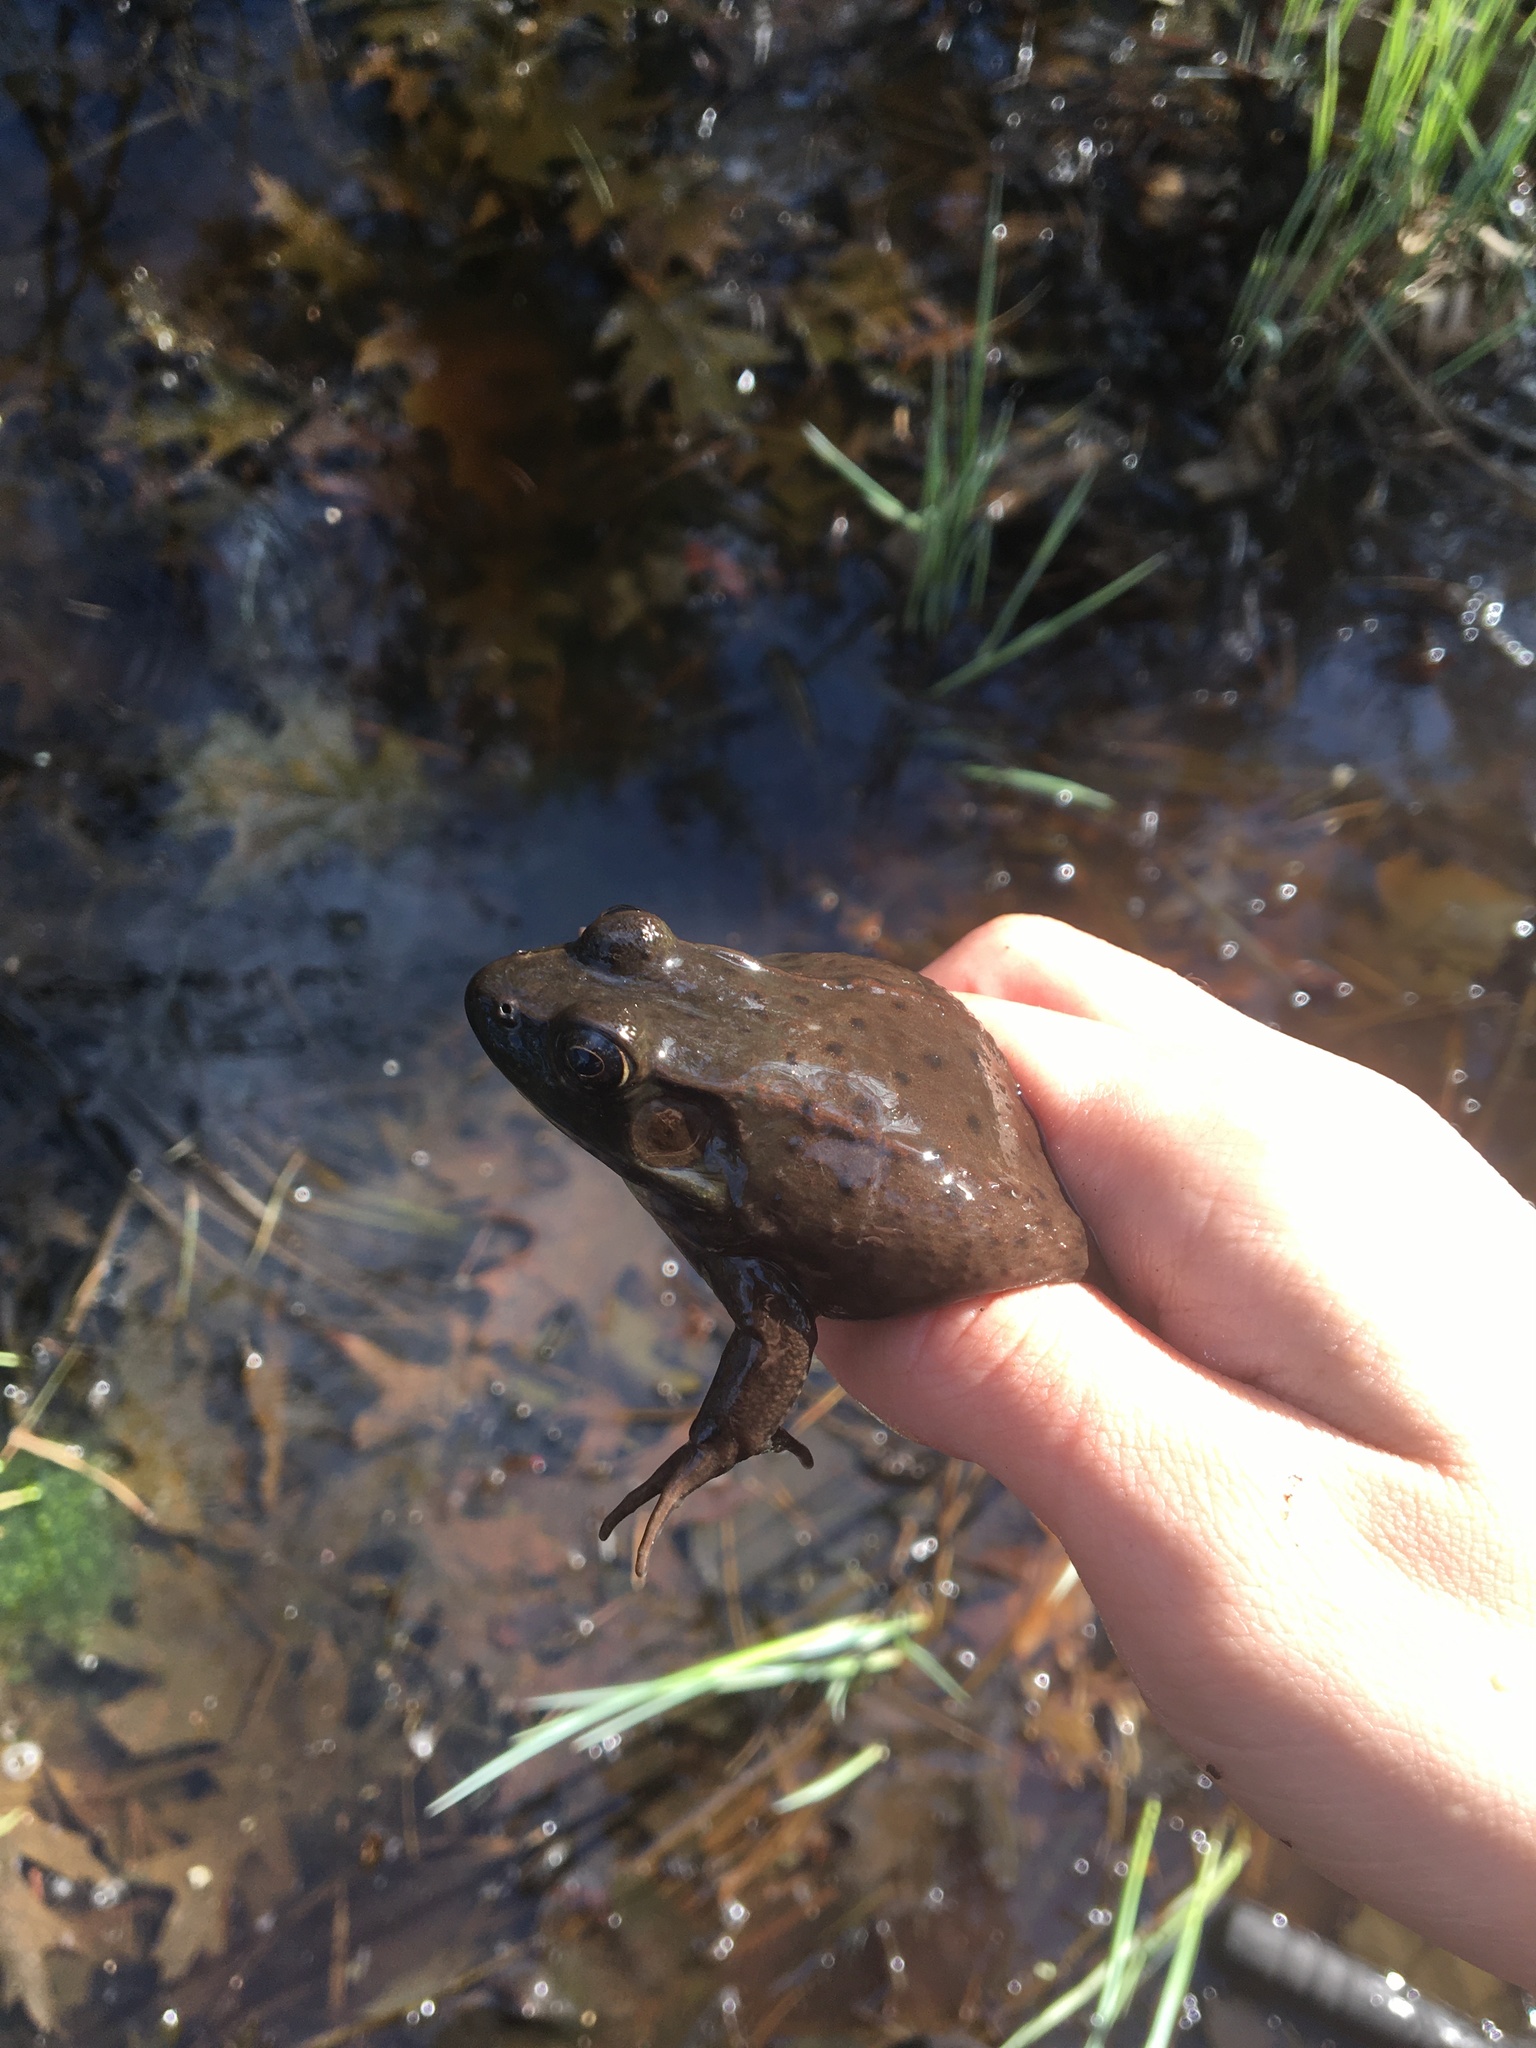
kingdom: Animalia
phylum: Chordata
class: Amphibia
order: Anura
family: Ranidae
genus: Lithobates
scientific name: Lithobates clamitans
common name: Green frog
